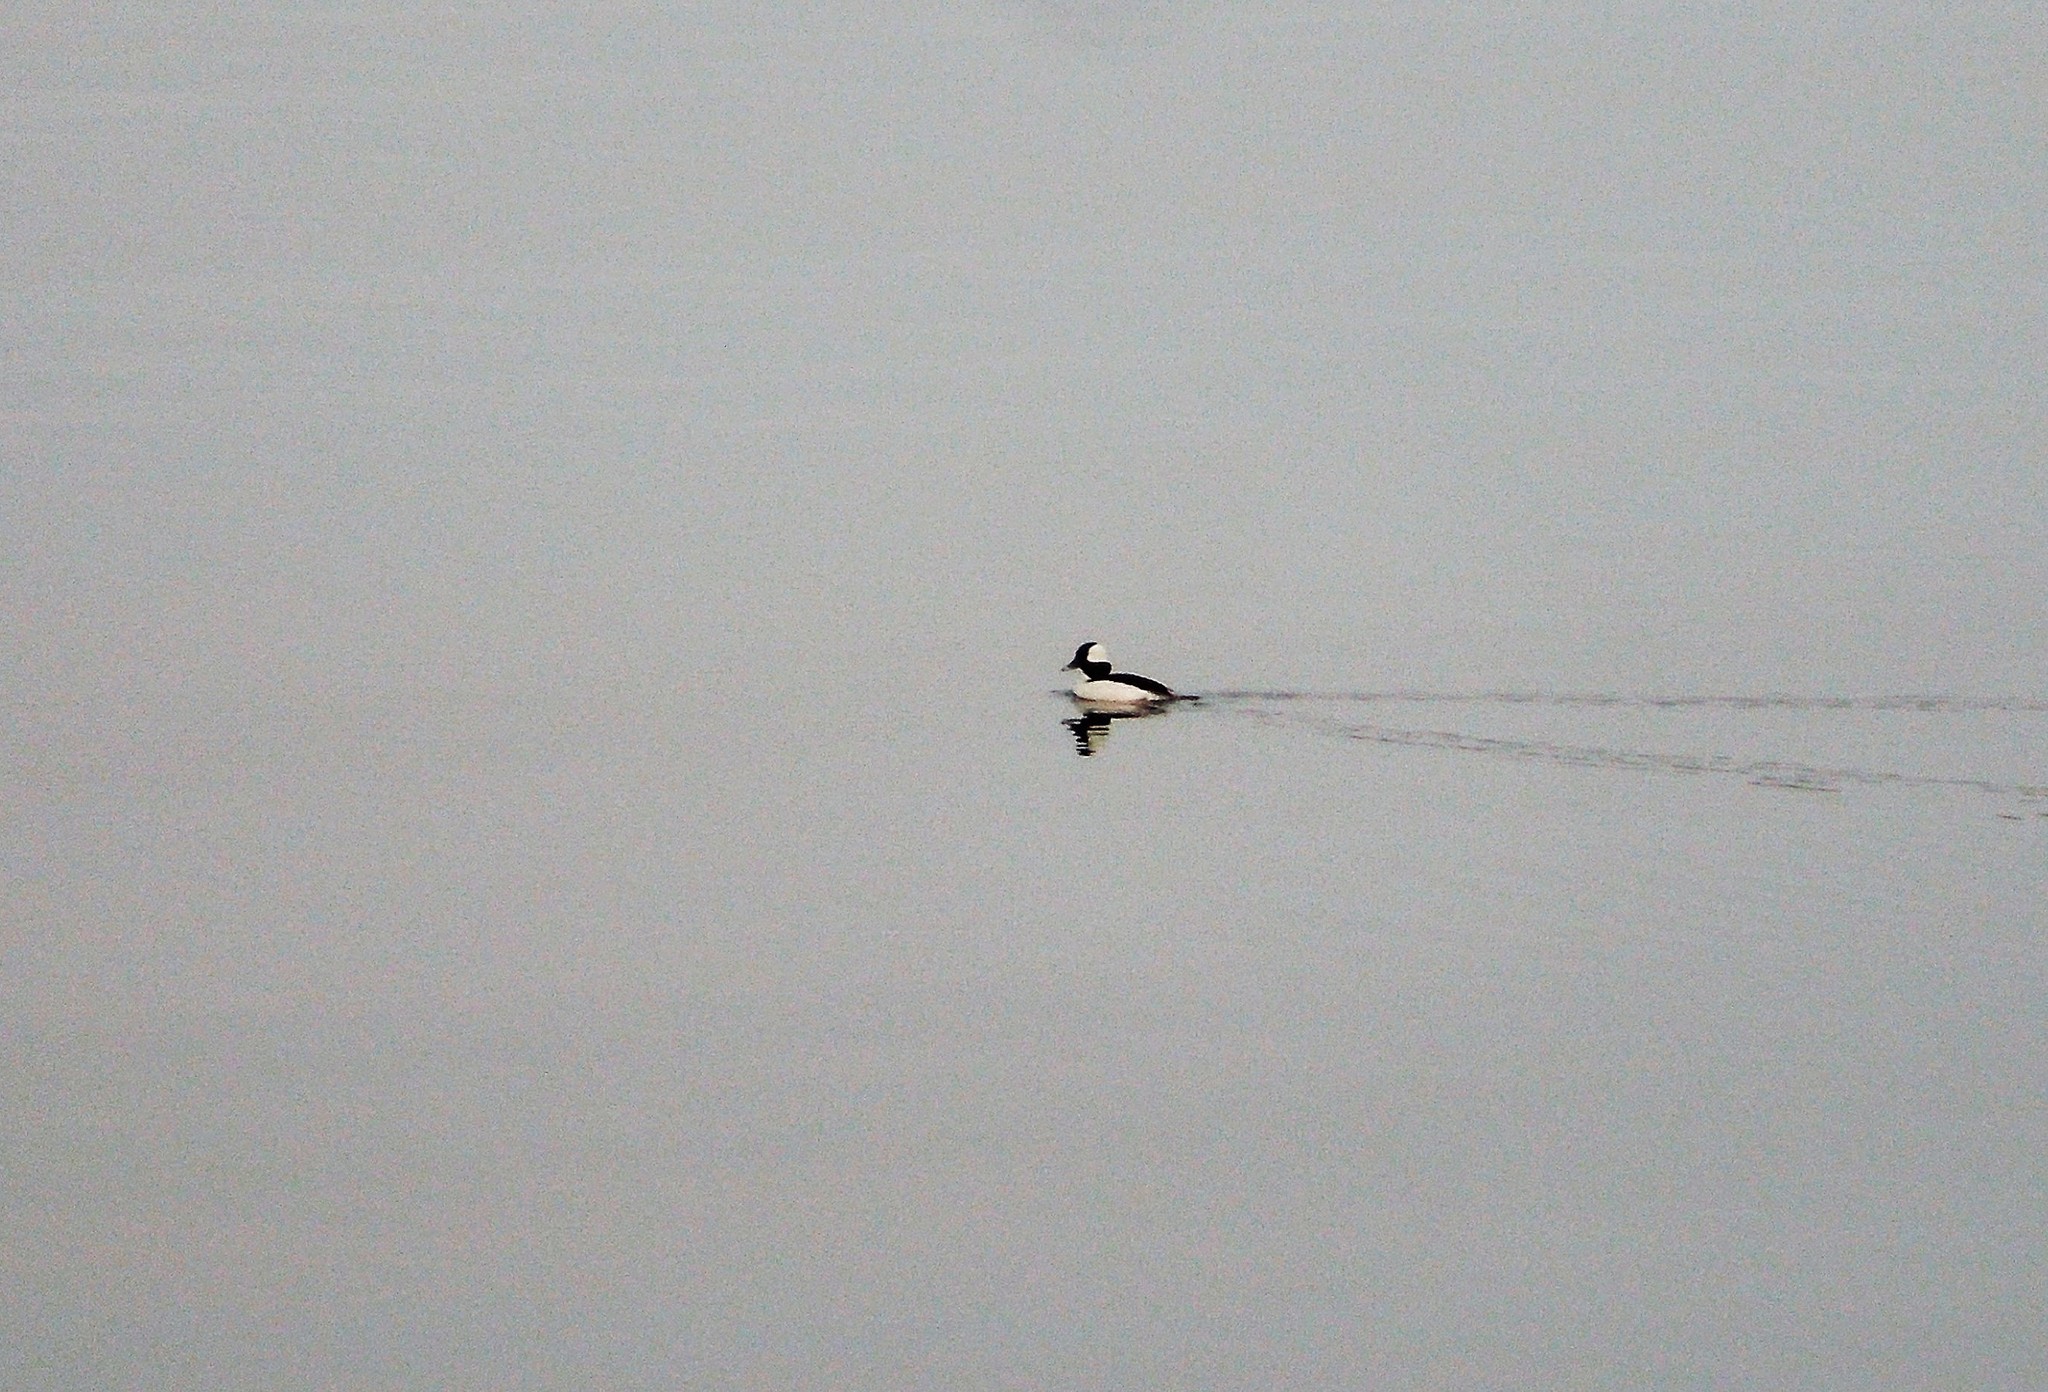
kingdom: Animalia
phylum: Chordata
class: Aves
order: Anseriformes
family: Anatidae
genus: Bucephala
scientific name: Bucephala albeola
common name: Bufflehead
